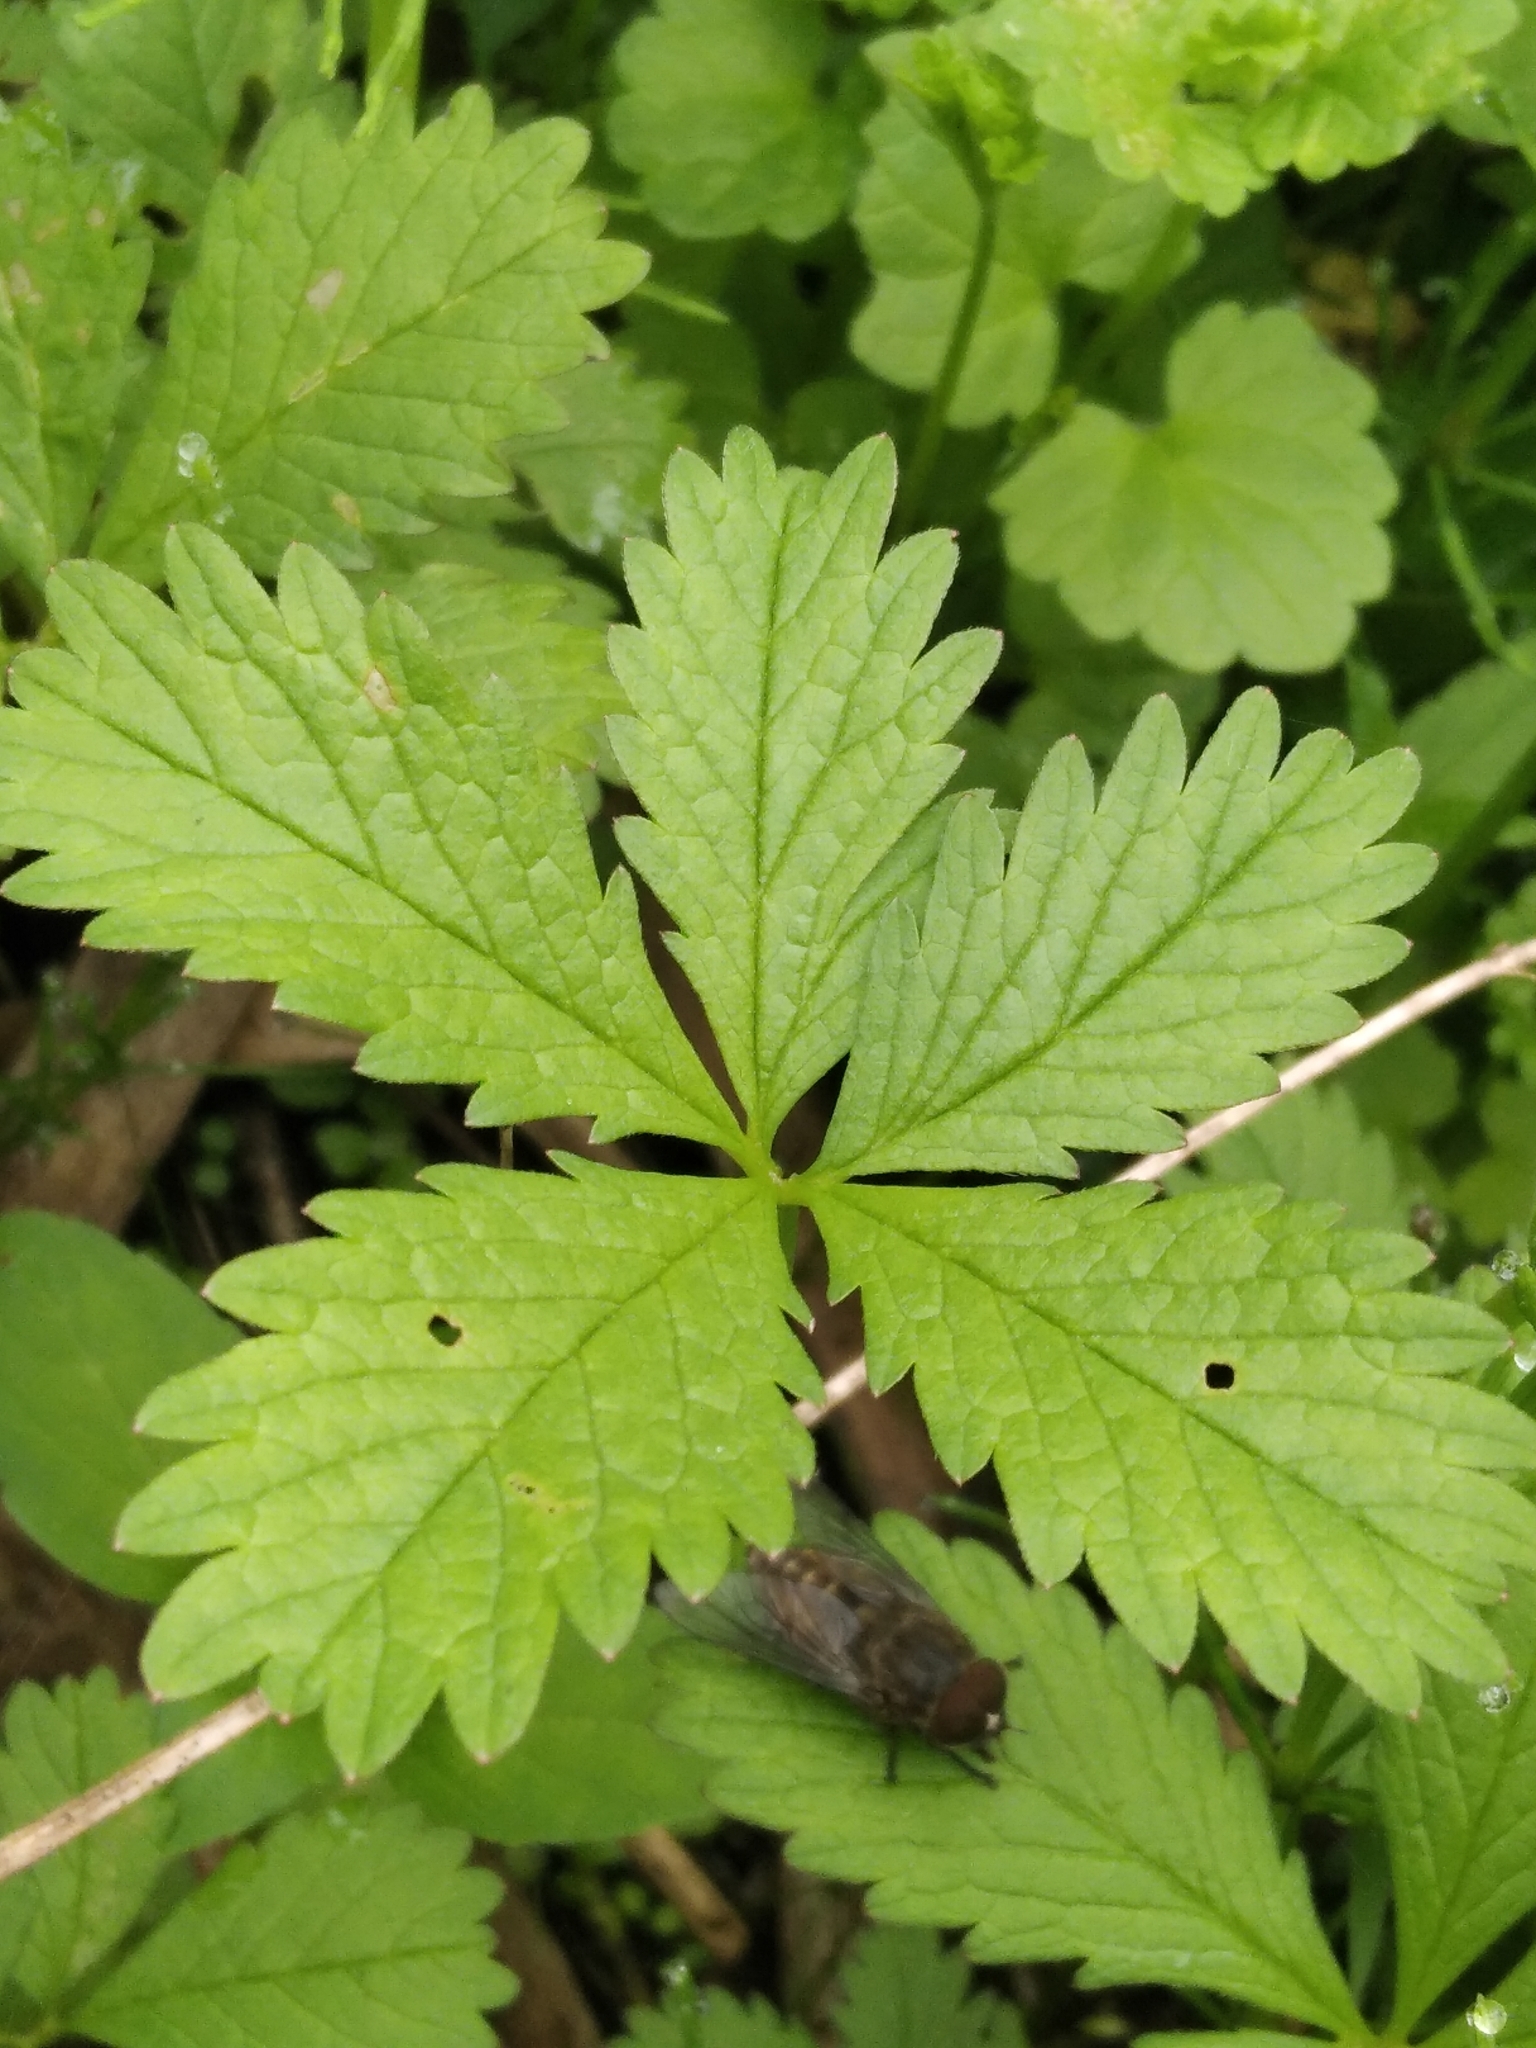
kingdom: Plantae
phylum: Tracheophyta
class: Magnoliopsida
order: Rosales
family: Rosaceae
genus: Potentilla
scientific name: Potentilla reptans
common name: Creeping cinquefoil
